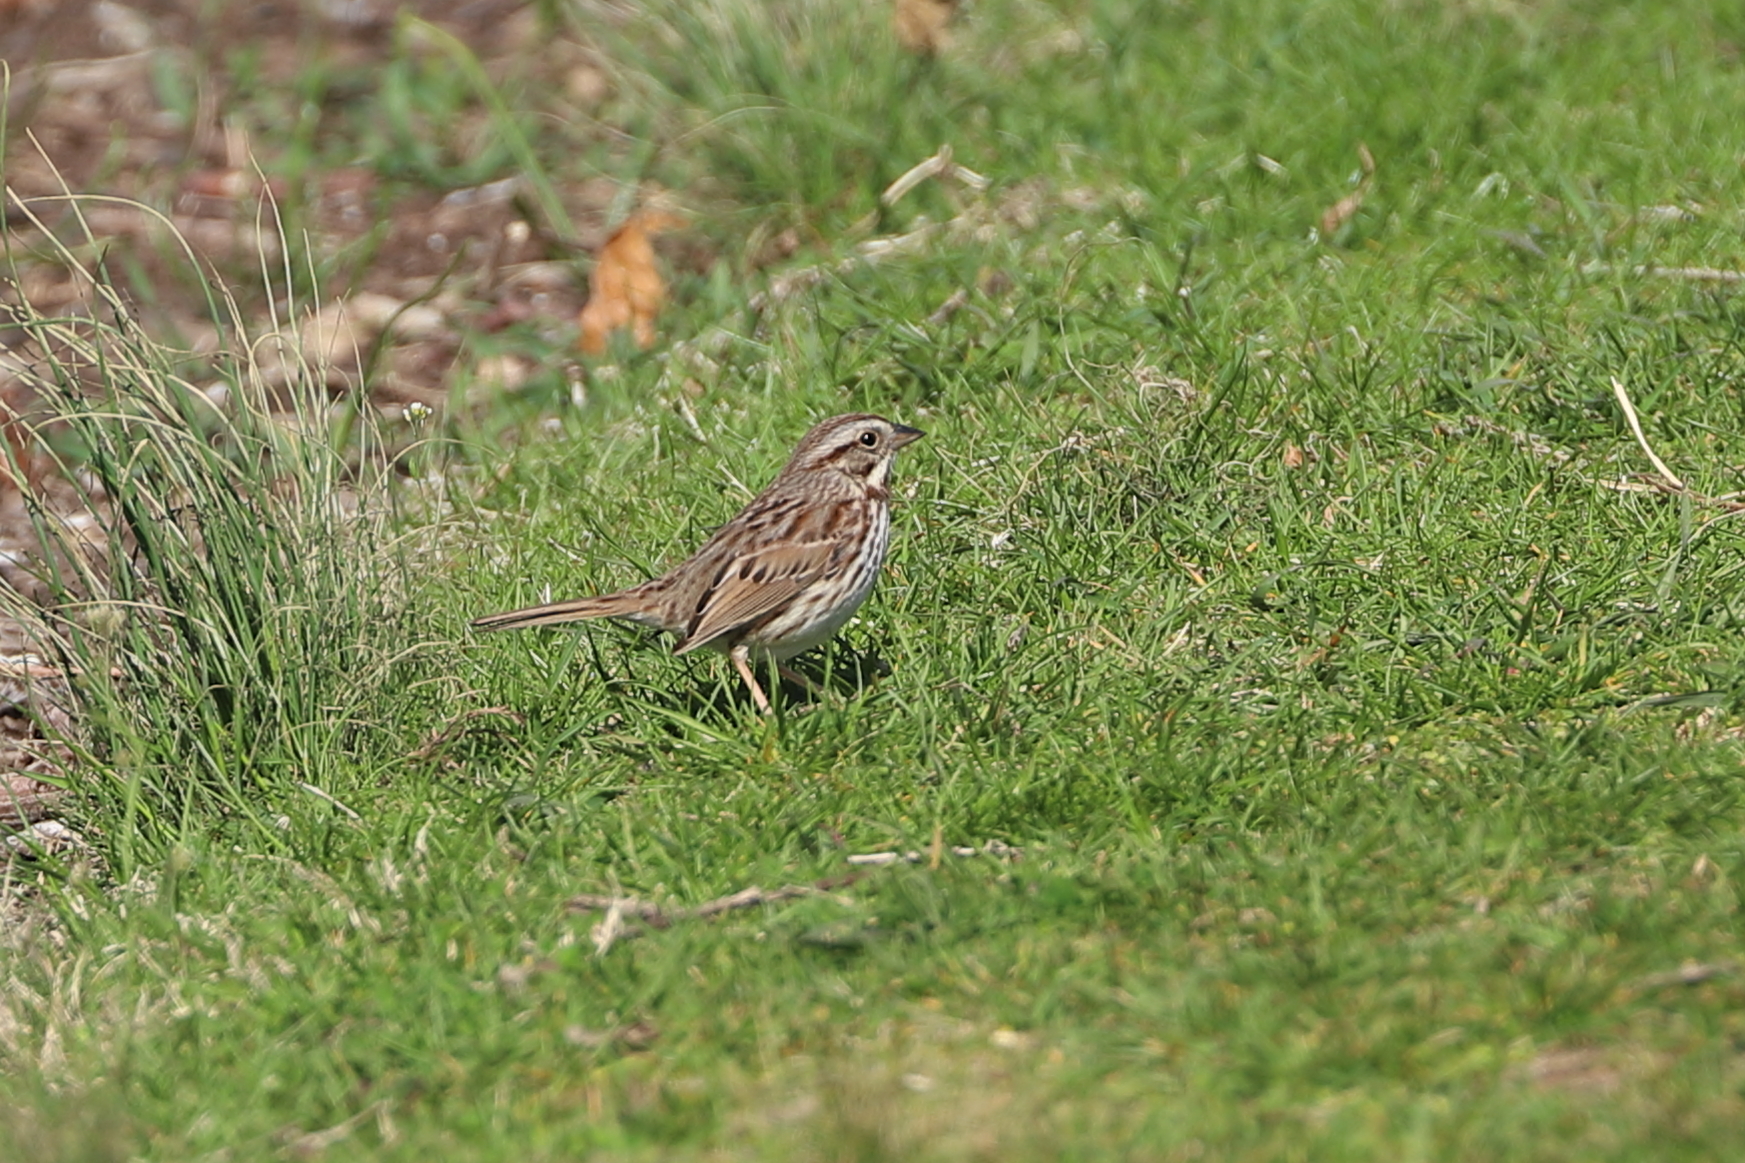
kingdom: Animalia
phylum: Chordata
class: Aves
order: Passeriformes
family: Passerellidae
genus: Melospiza
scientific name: Melospiza melodia
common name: Song sparrow
